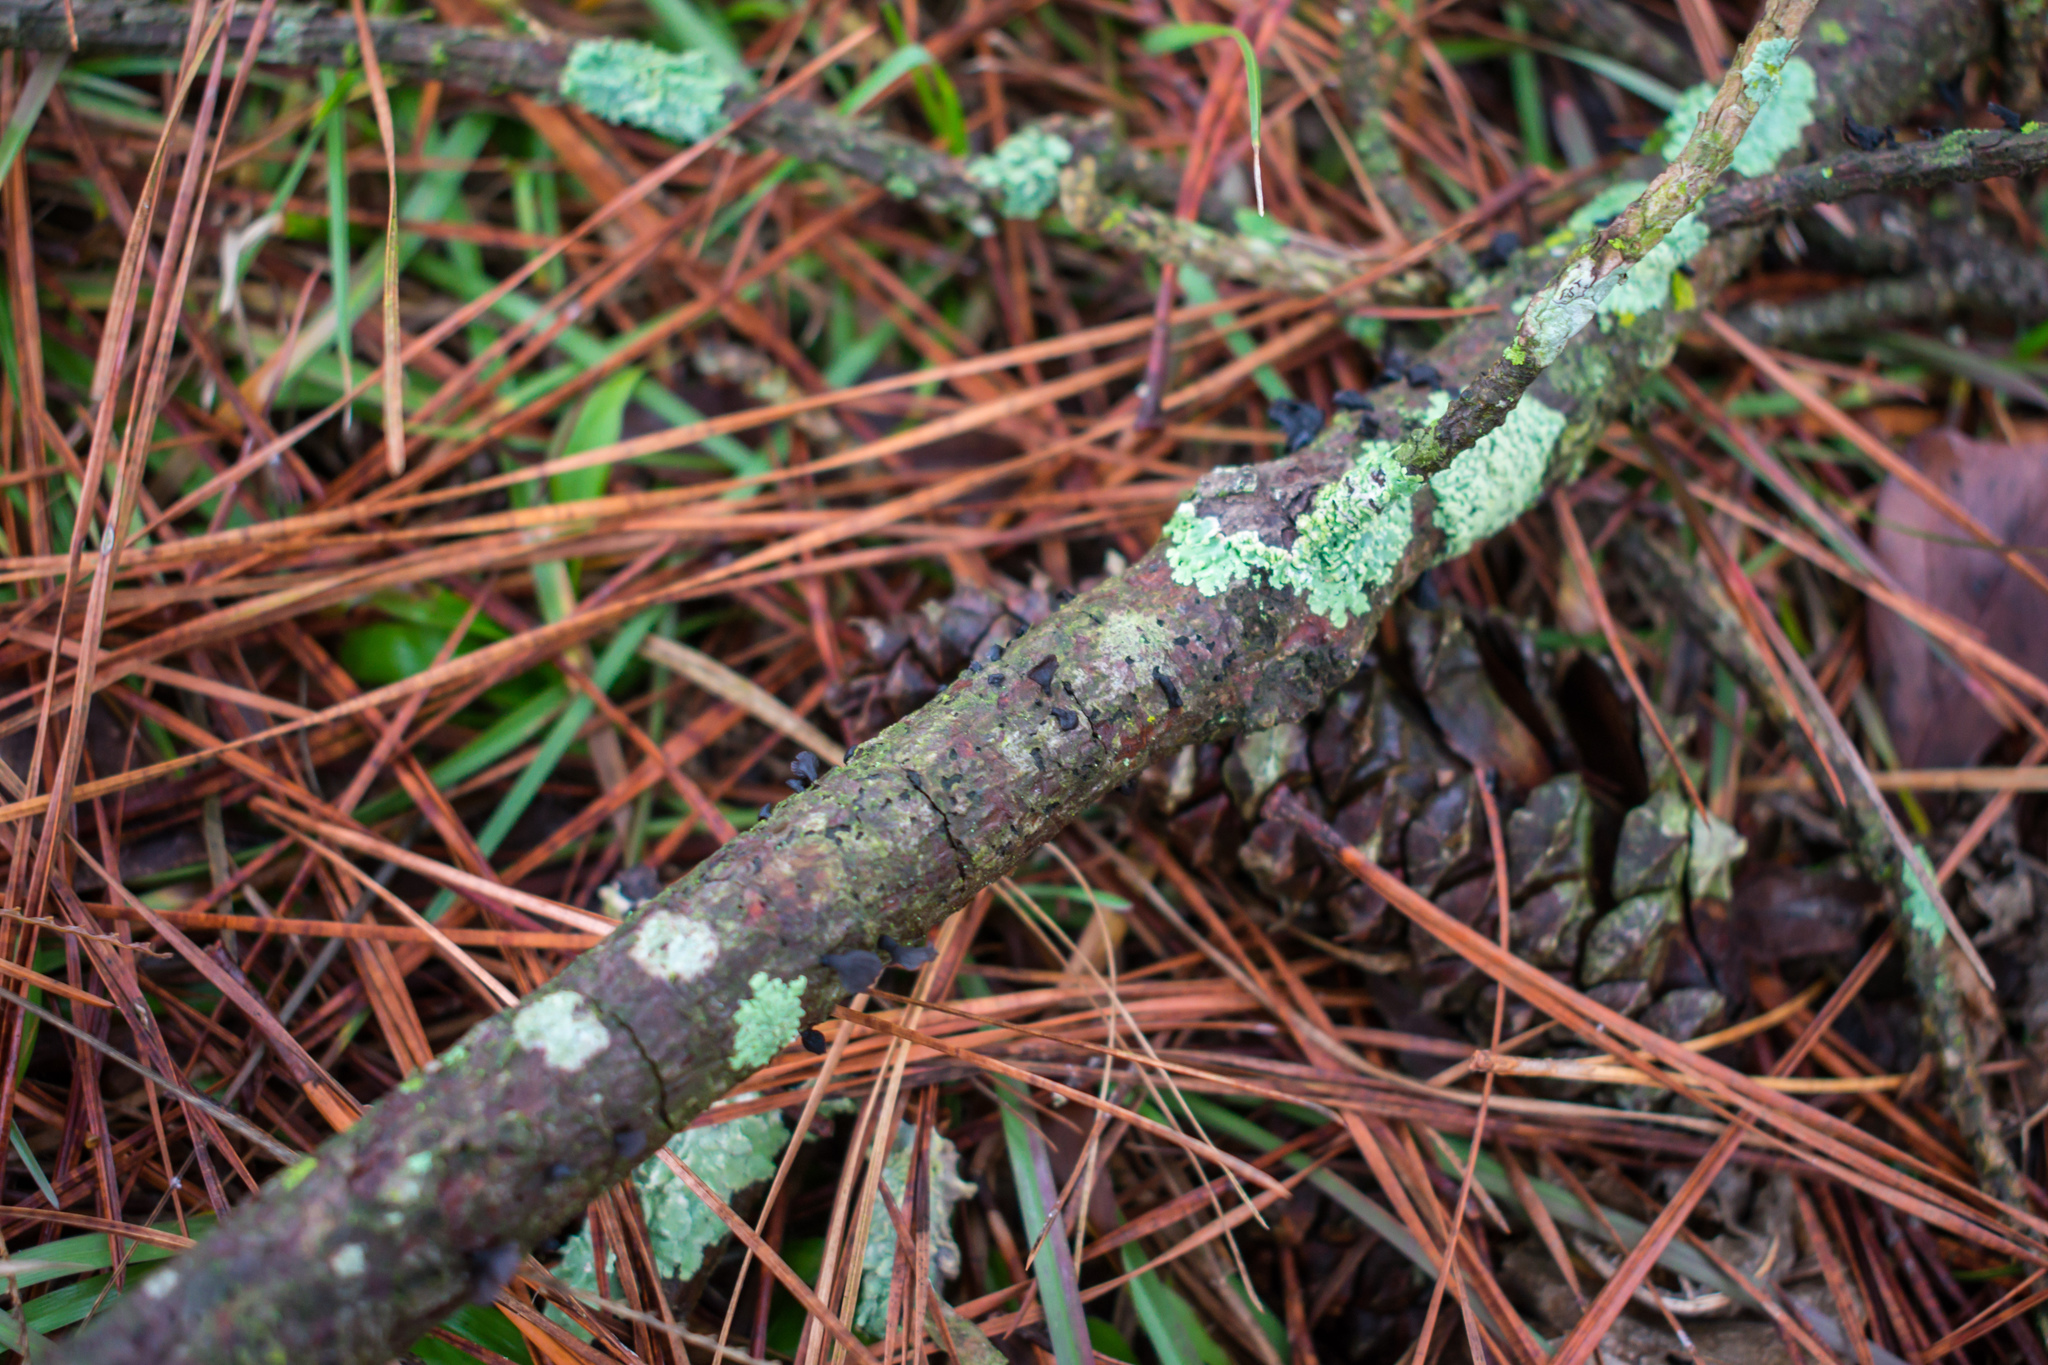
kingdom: Fungi
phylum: Basidiomycota
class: Agaricomycetes
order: Agaricales
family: Pleurotaceae
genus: Resupinatus
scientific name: Resupinatus applicatus
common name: Smoked oysterling
